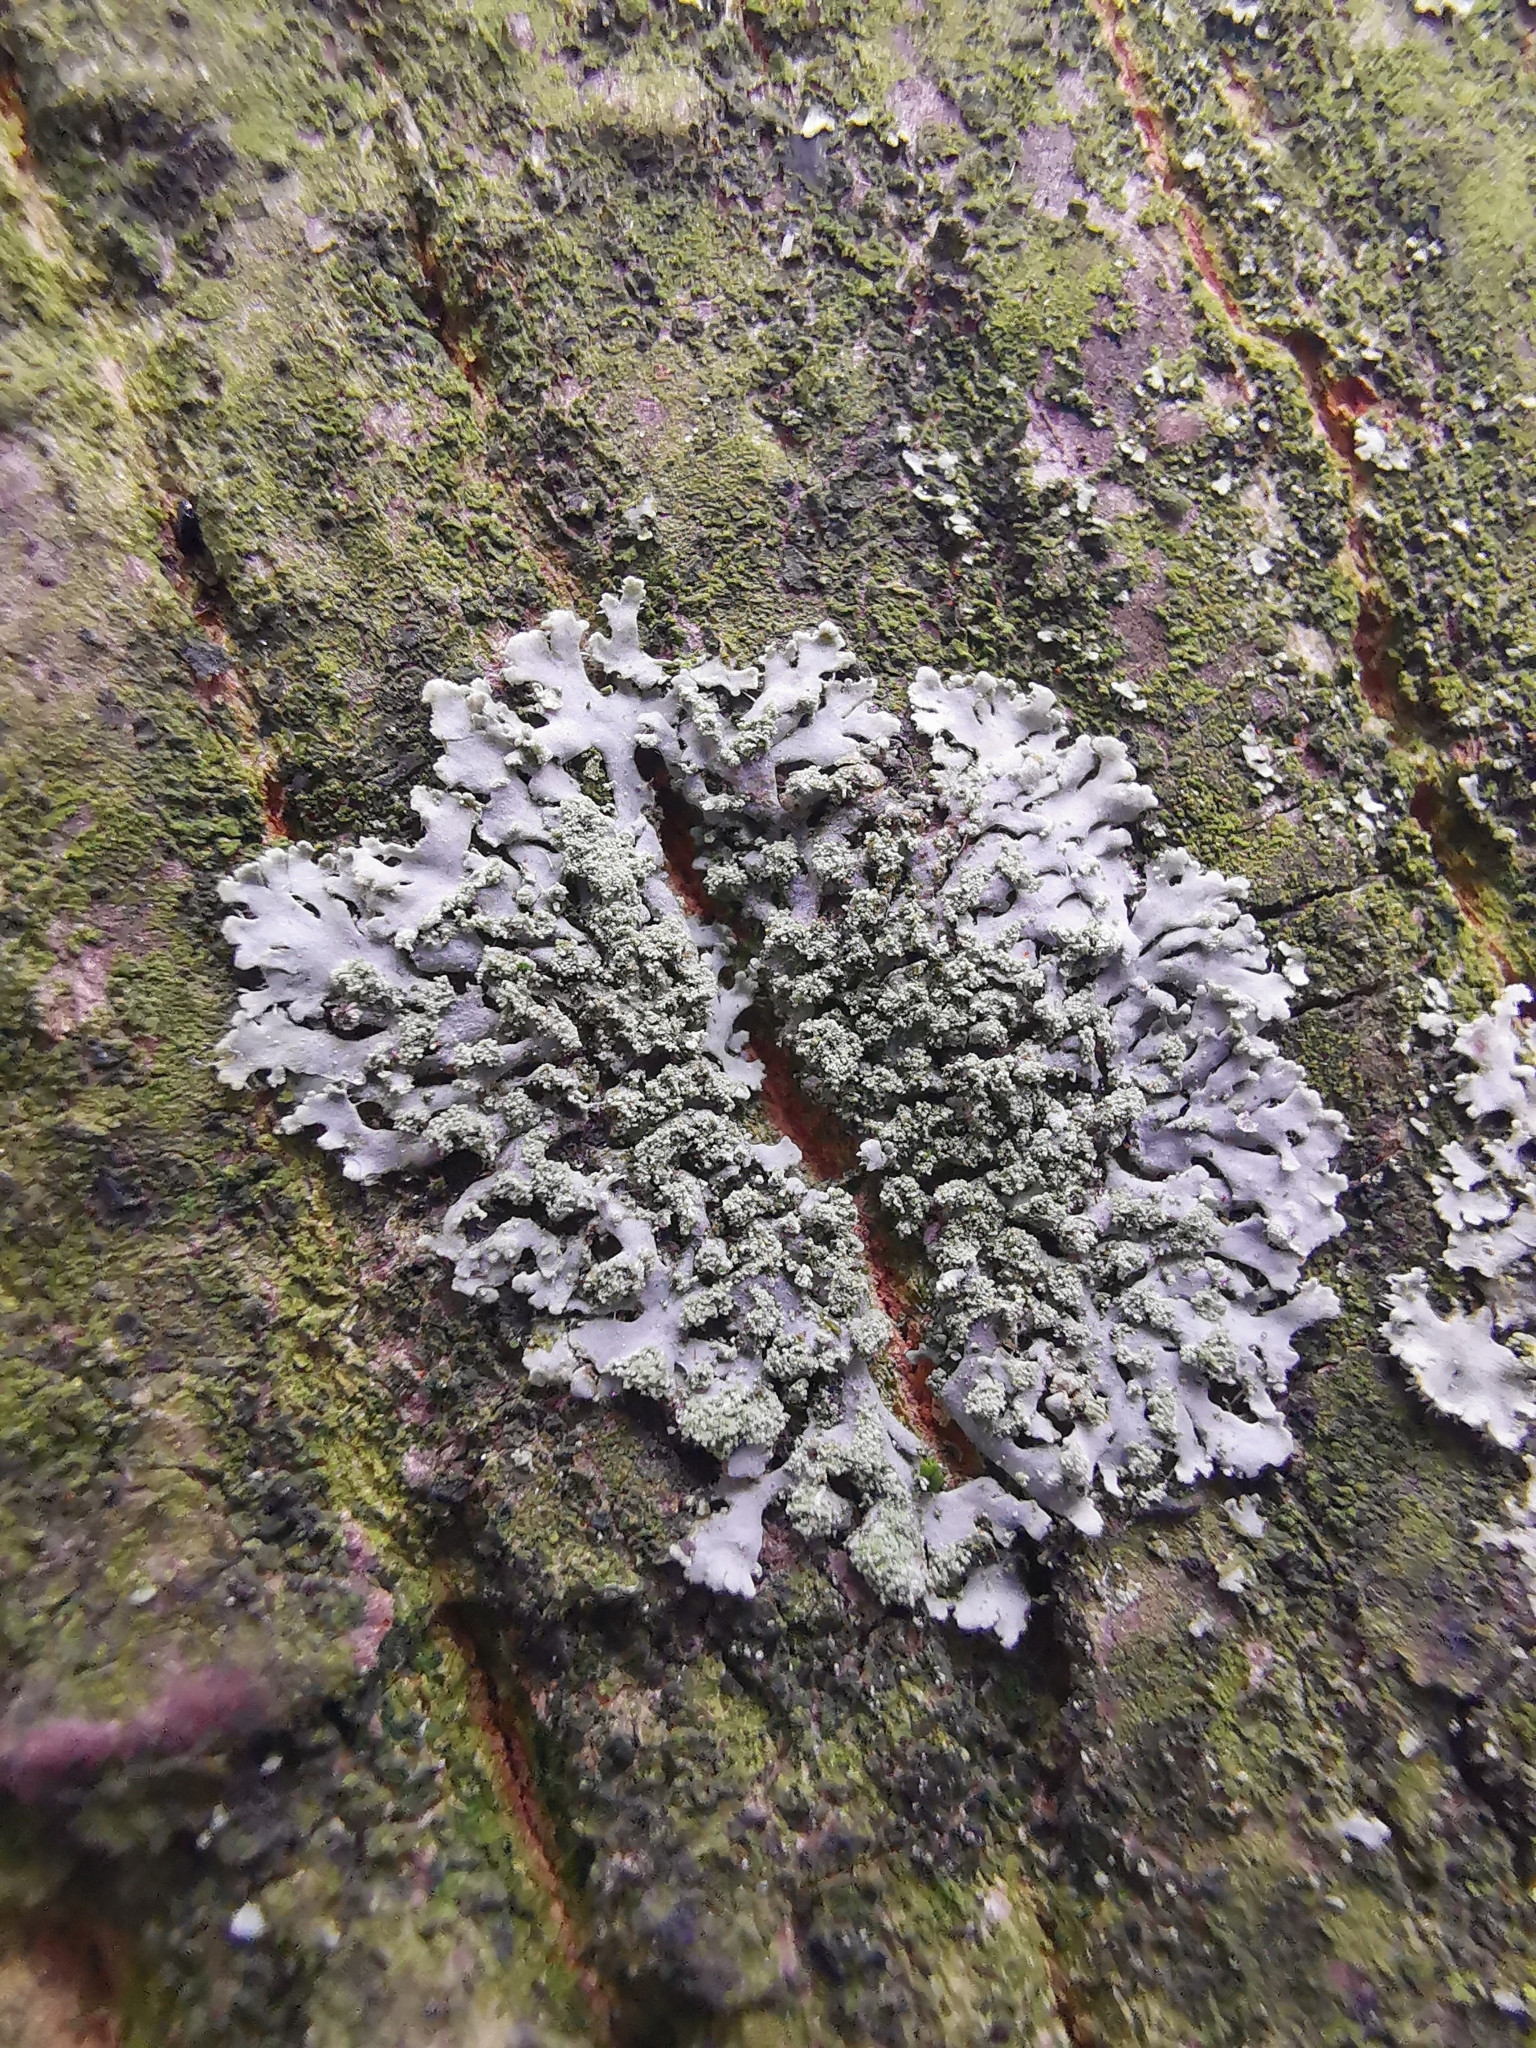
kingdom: Fungi
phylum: Ascomycota
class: Lecanoromycetes
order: Caliciales
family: Physciaceae
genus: Phaeophyscia
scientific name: Phaeophyscia orbicularis
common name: Mealy shadow lichen
